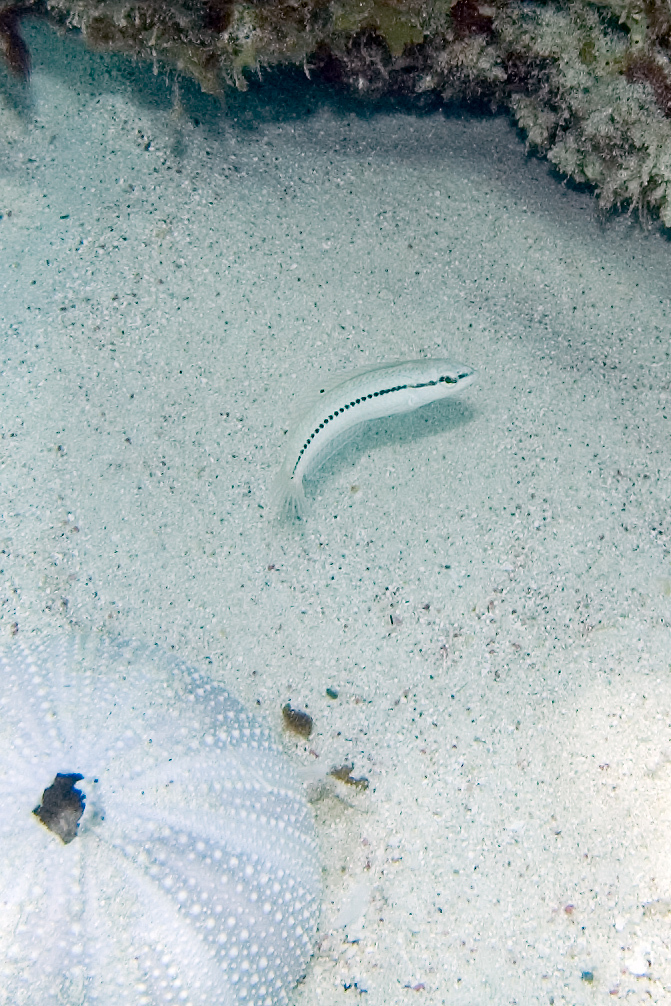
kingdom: Animalia
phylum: Chordata
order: Perciformes
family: Labridae
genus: Halichoeres
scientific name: Halichoeres bivittatus
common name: Slippery dick
